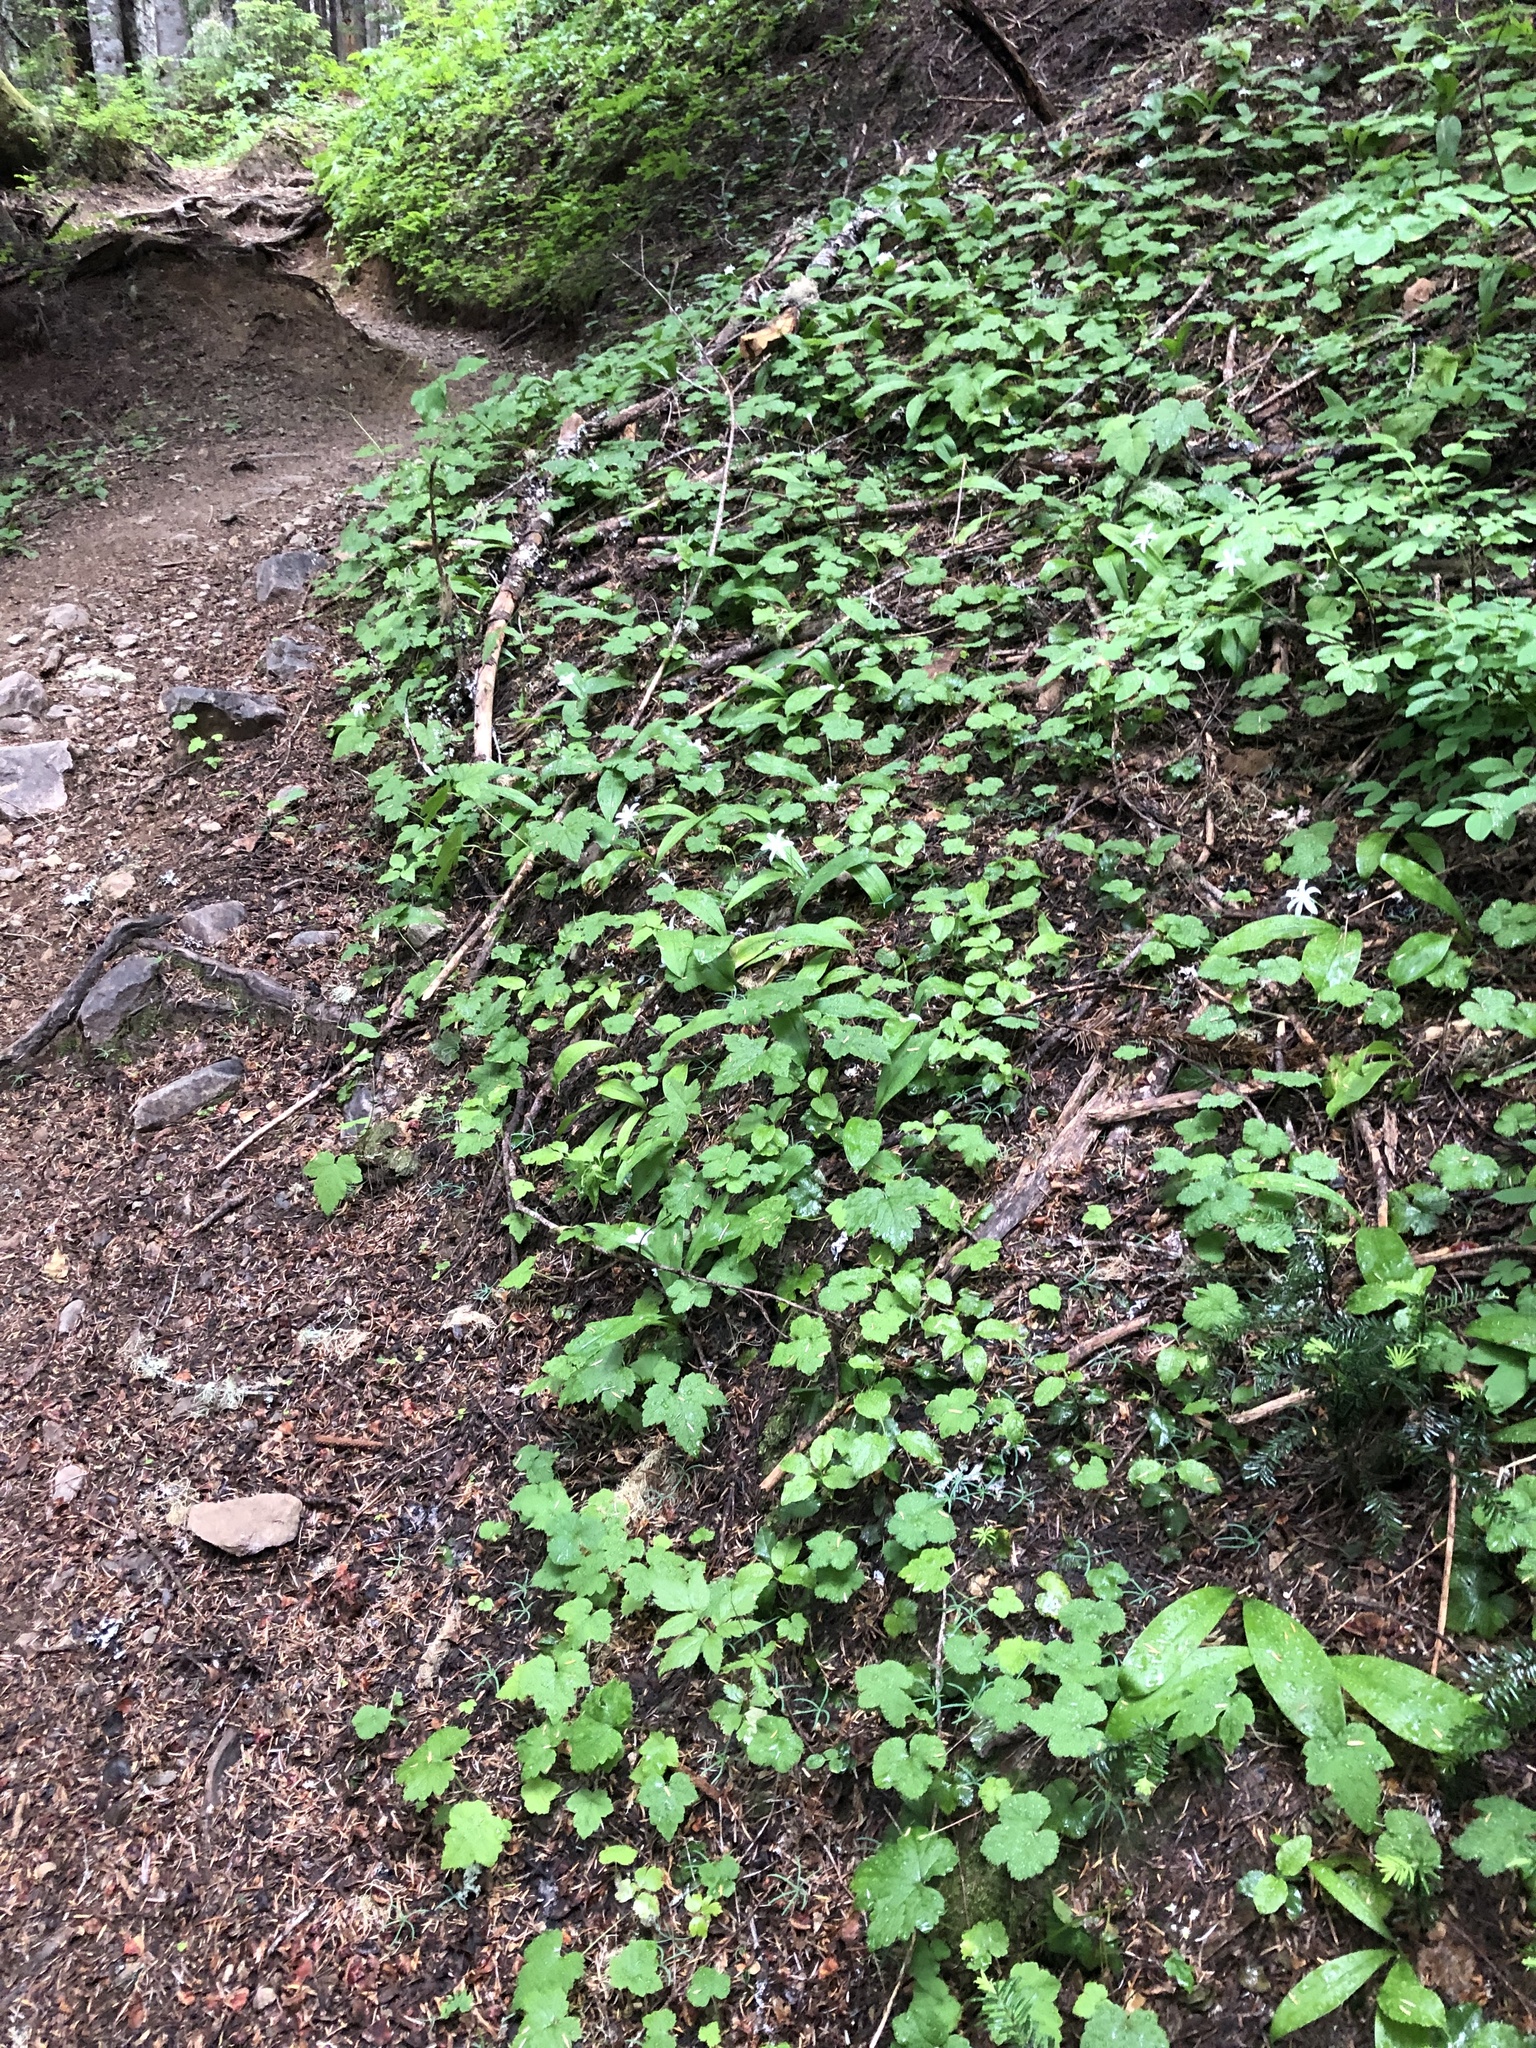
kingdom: Plantae
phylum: Tracheophyta
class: Liliopsida
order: Liliales
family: Liliaceae
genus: Clintonia
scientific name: Clintonia uniflora
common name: Queen's cup
